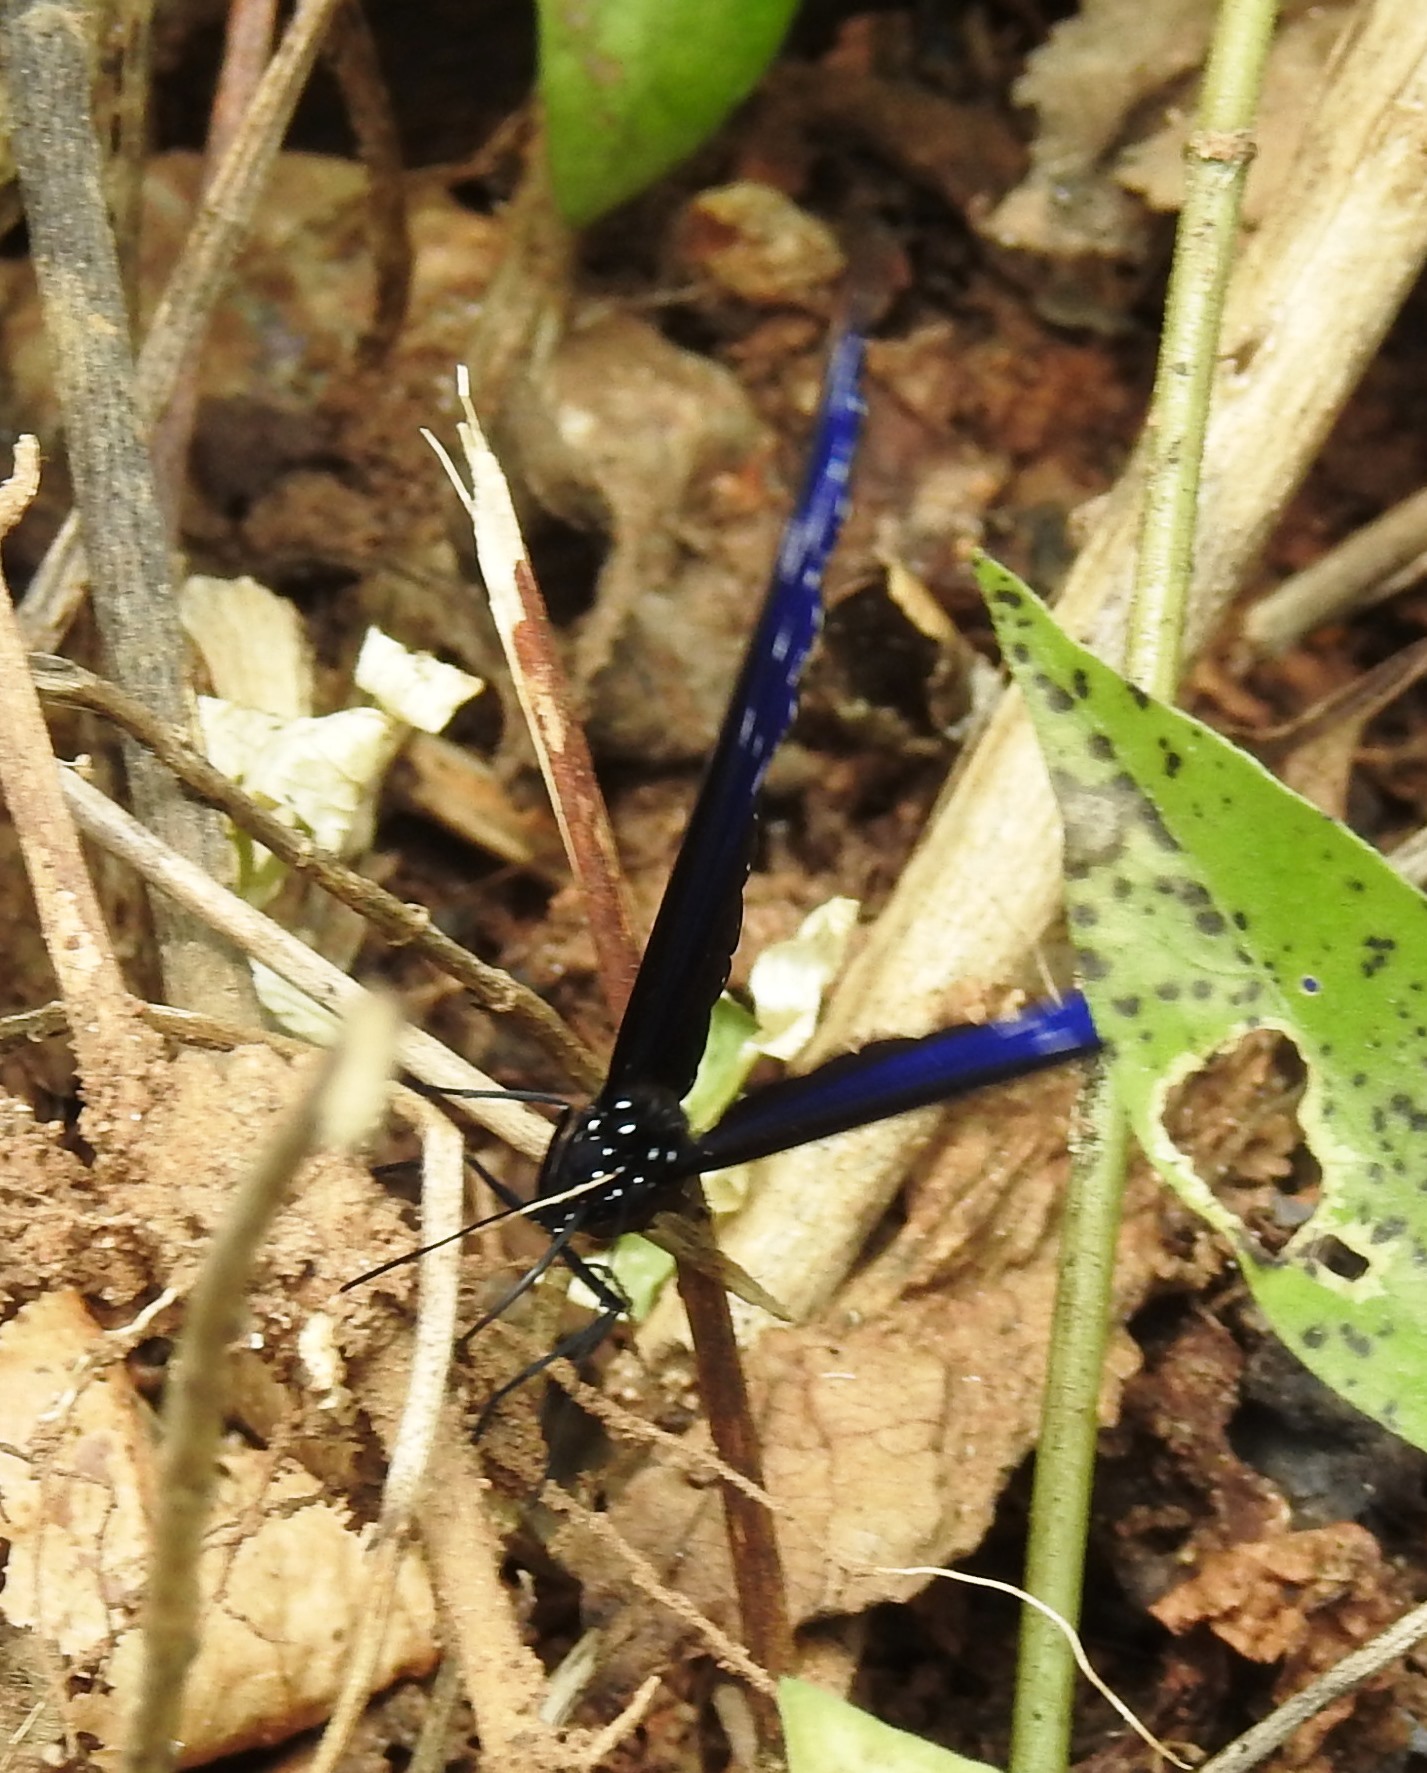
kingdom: Animalia
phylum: Arthropoda
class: Insecta
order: Lepidoptera
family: Nymphalidae
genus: Euploea
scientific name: Euploea mulciber
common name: Striped blue crow butterfly
